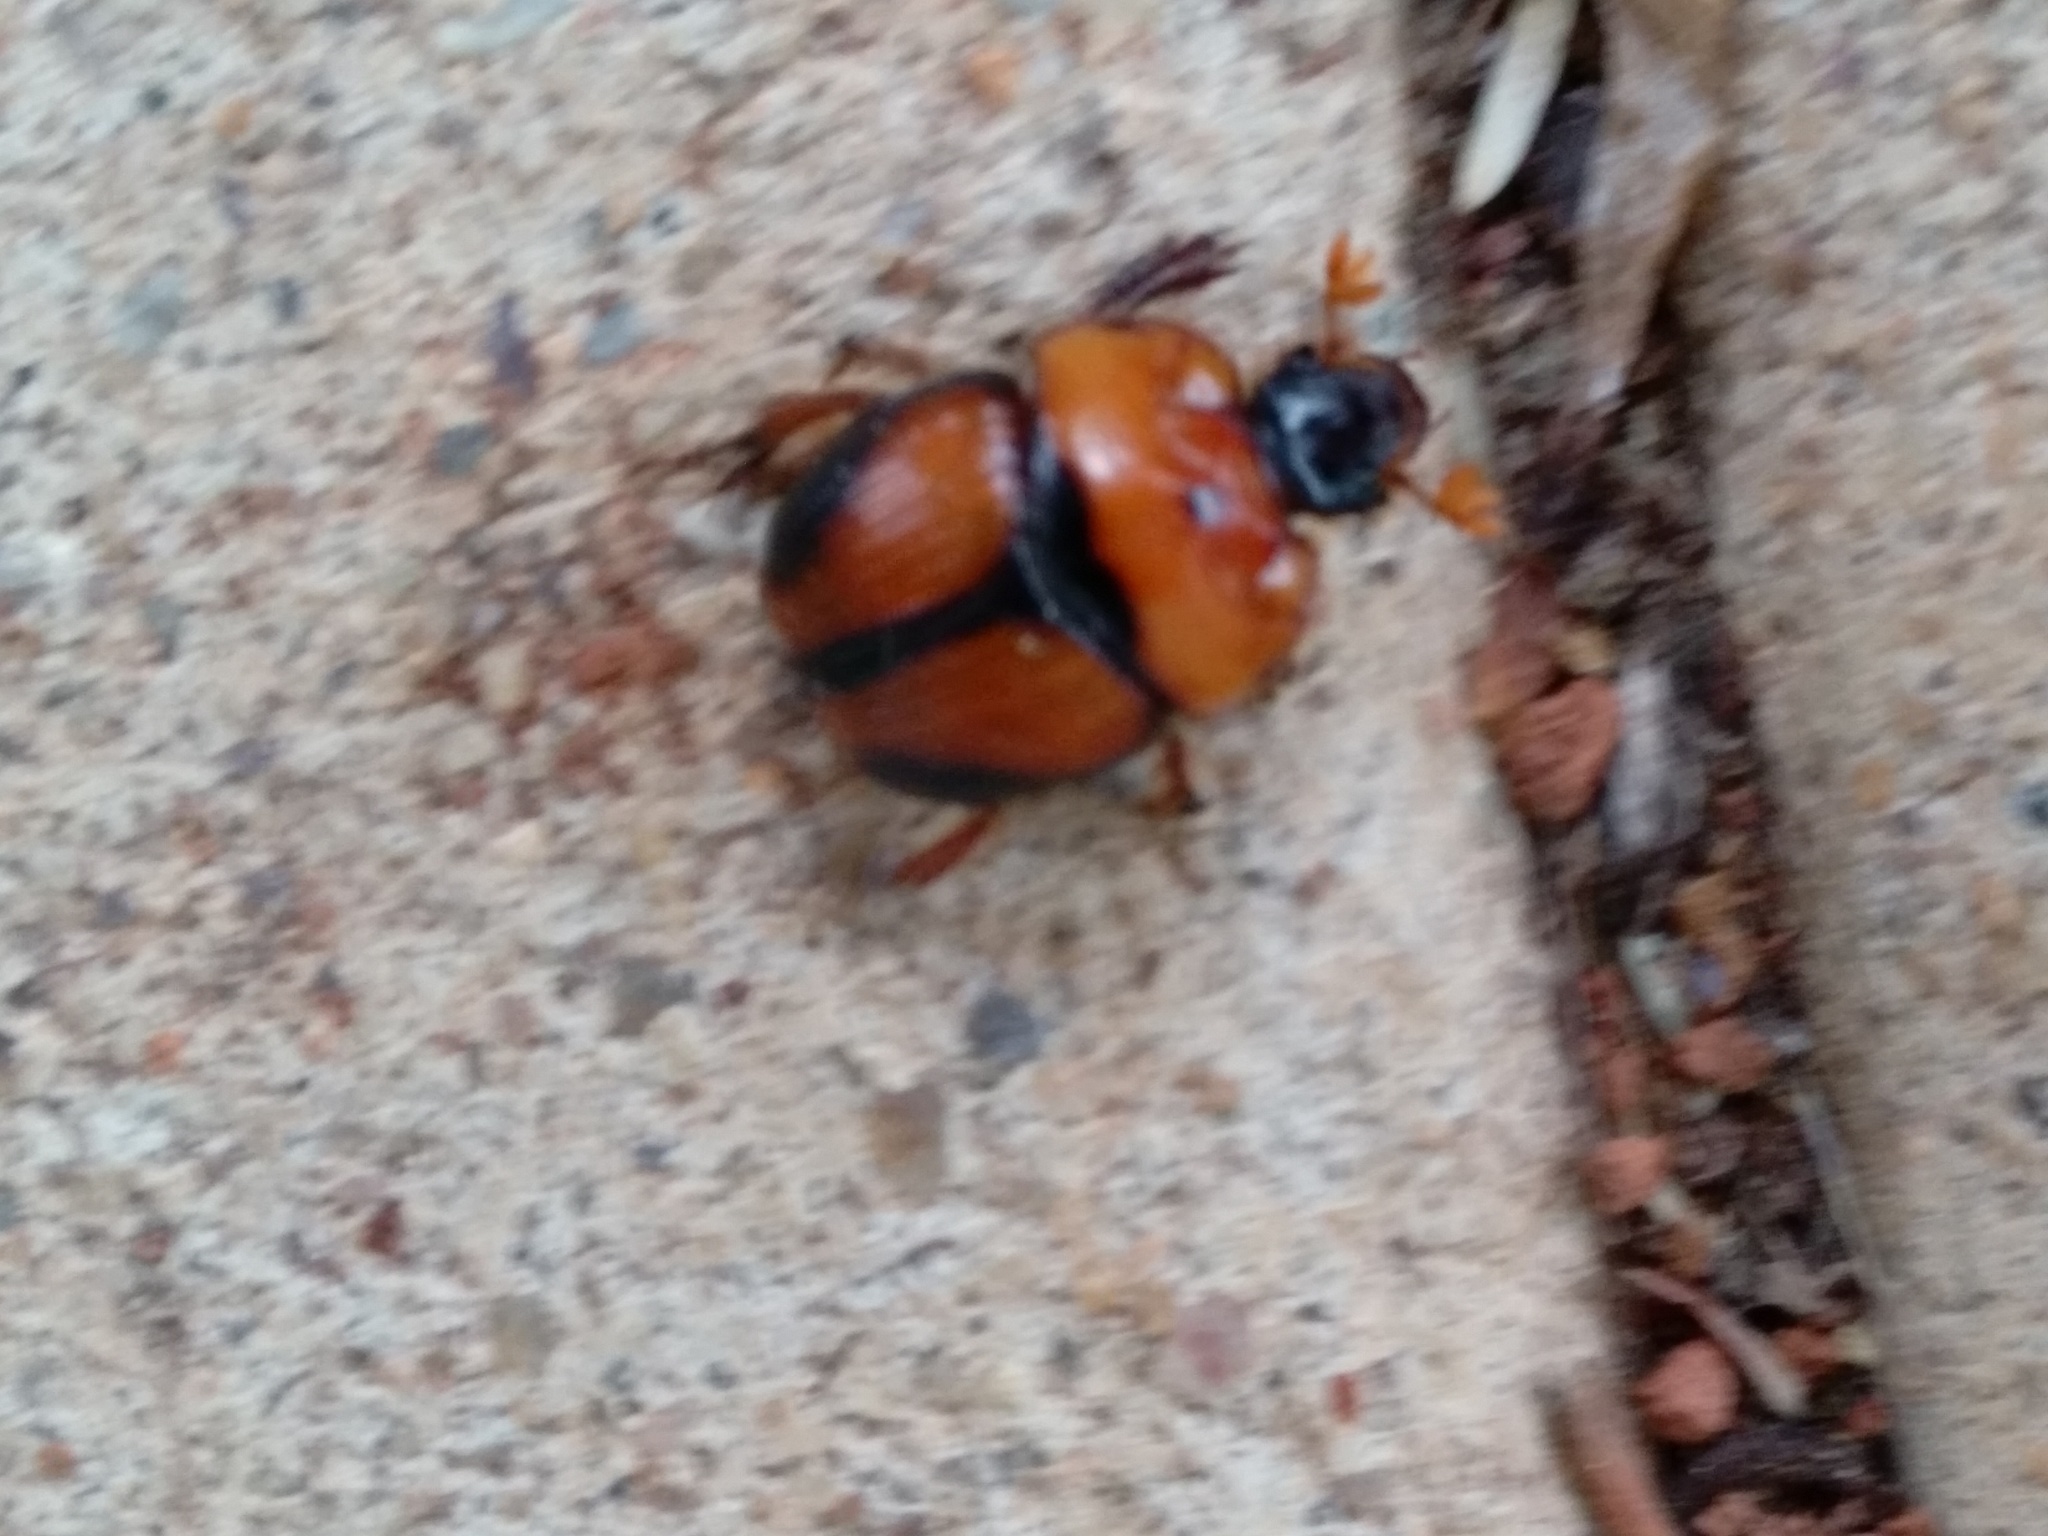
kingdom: Animalia
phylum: Arthropoda
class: Insecta
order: Coleoptera
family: Geotrupidae
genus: Bolbocerosoma
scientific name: Bolbocerosoma tumefactum
